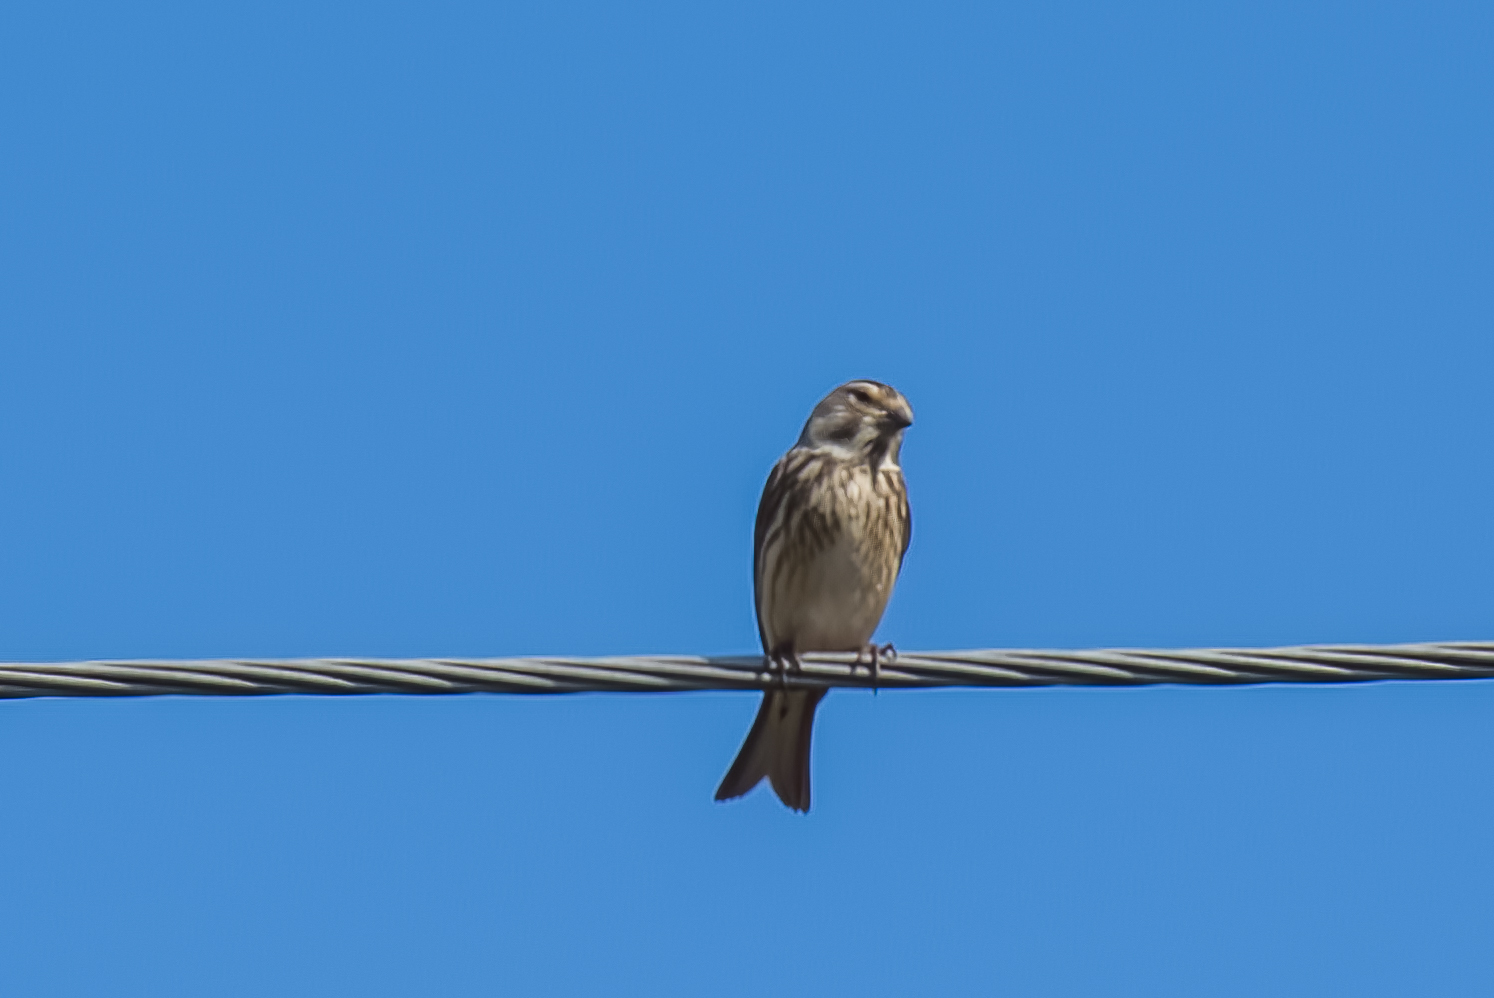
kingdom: Animalia
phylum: Chordata
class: Aves
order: Passeriformes
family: Fringillidae
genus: Linaria
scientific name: Linaria cannabina
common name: Common linnet
